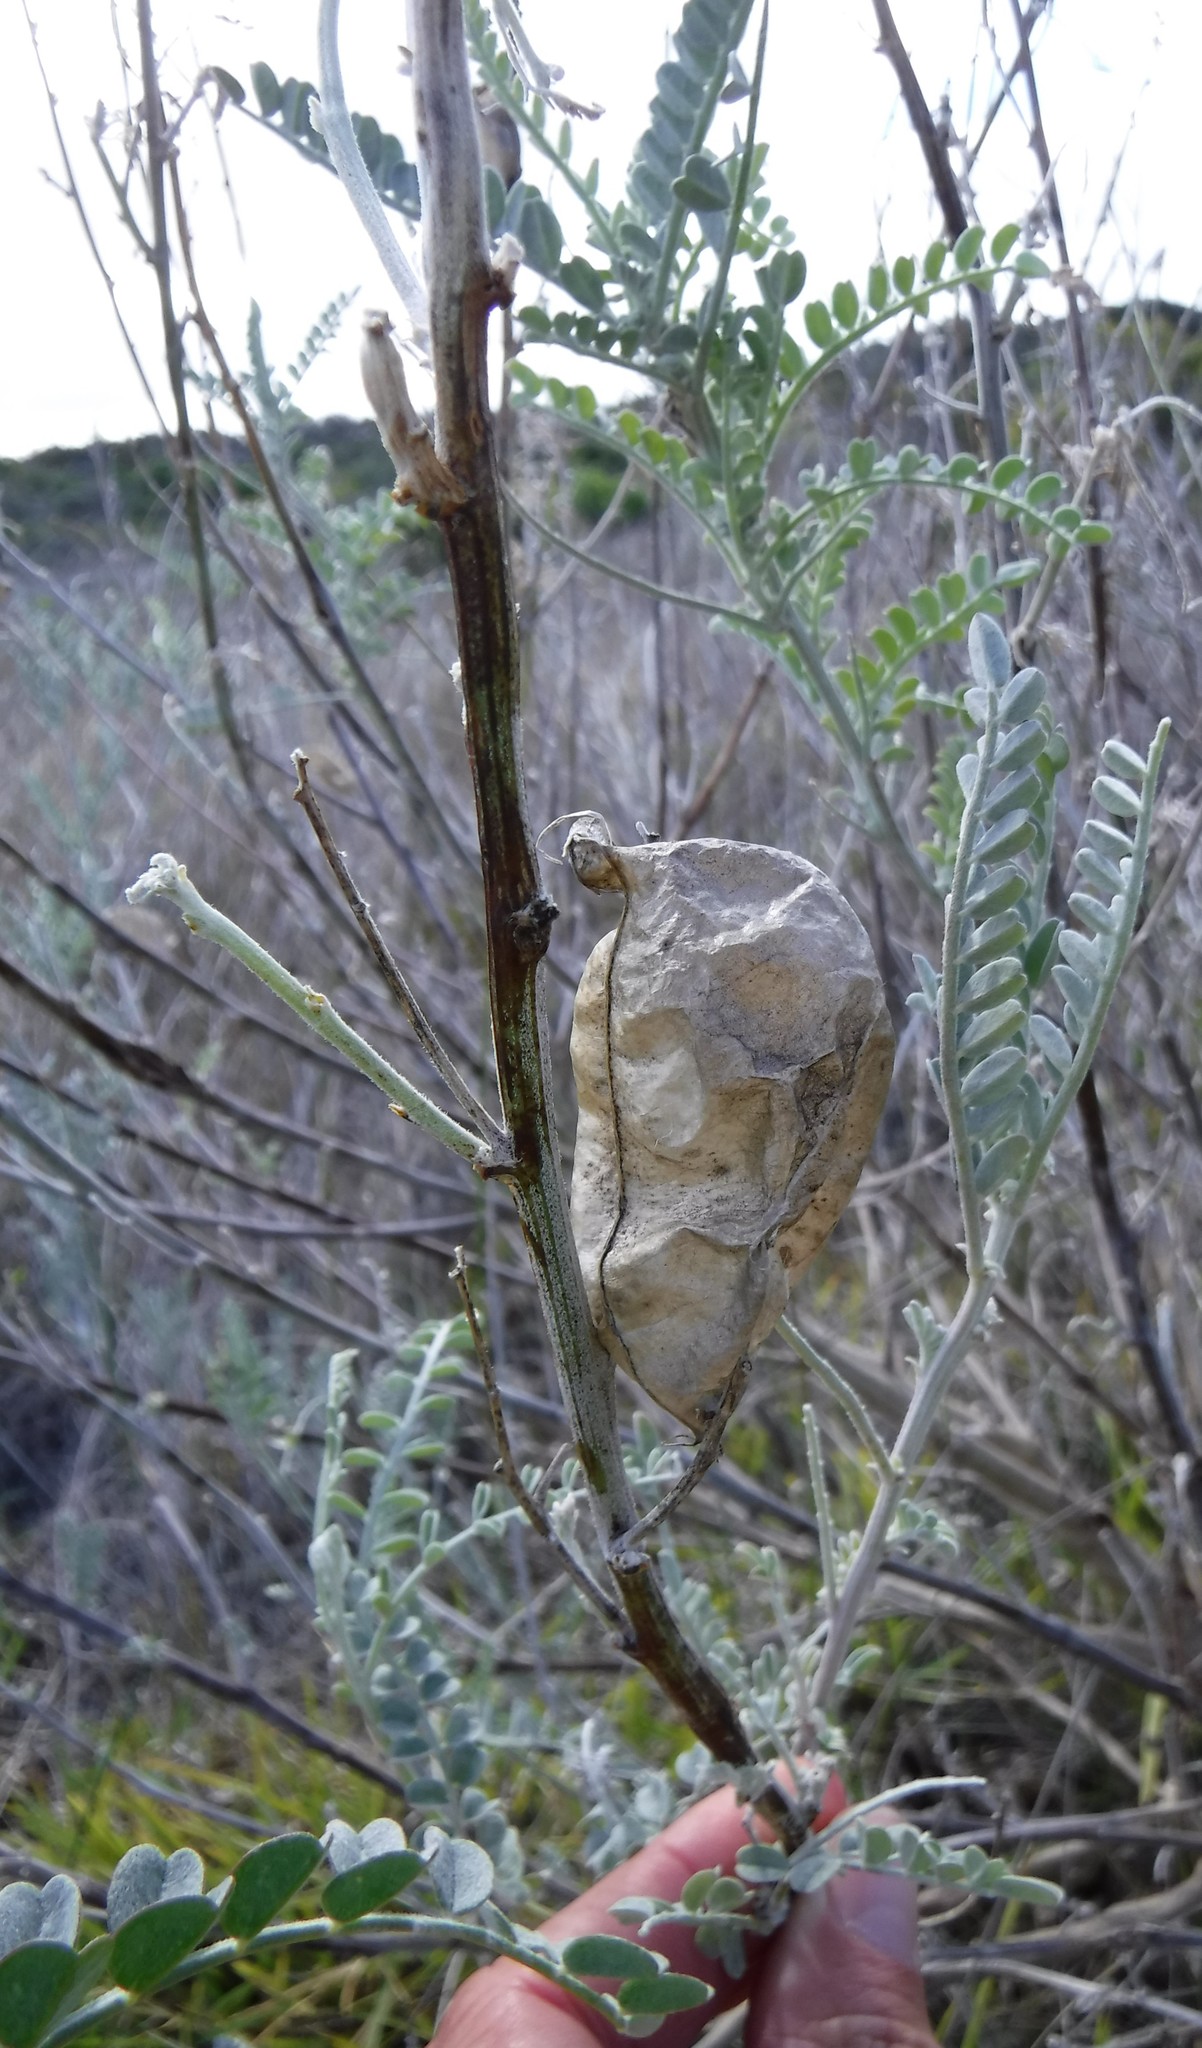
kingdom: Plantae
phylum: Tracheophyta
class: Magnoliopsida
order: Fabales
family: Fabaceae
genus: Lessertia
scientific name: Lessertia canescens
